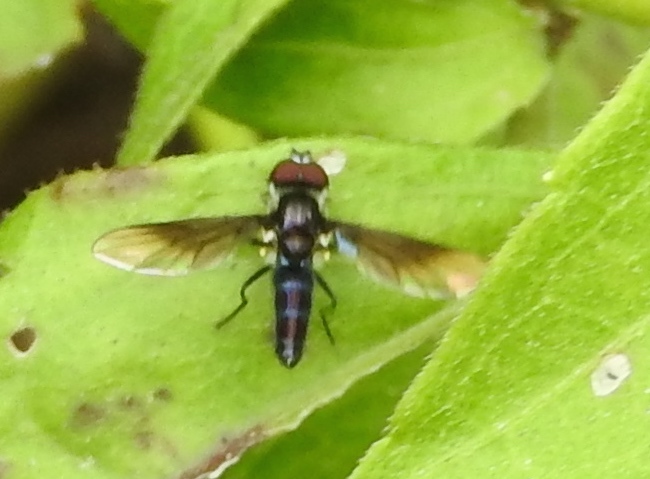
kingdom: Animalia
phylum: Arthropoda
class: Insecta
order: Diptera
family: Syrphidae
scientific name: Syrphidae
